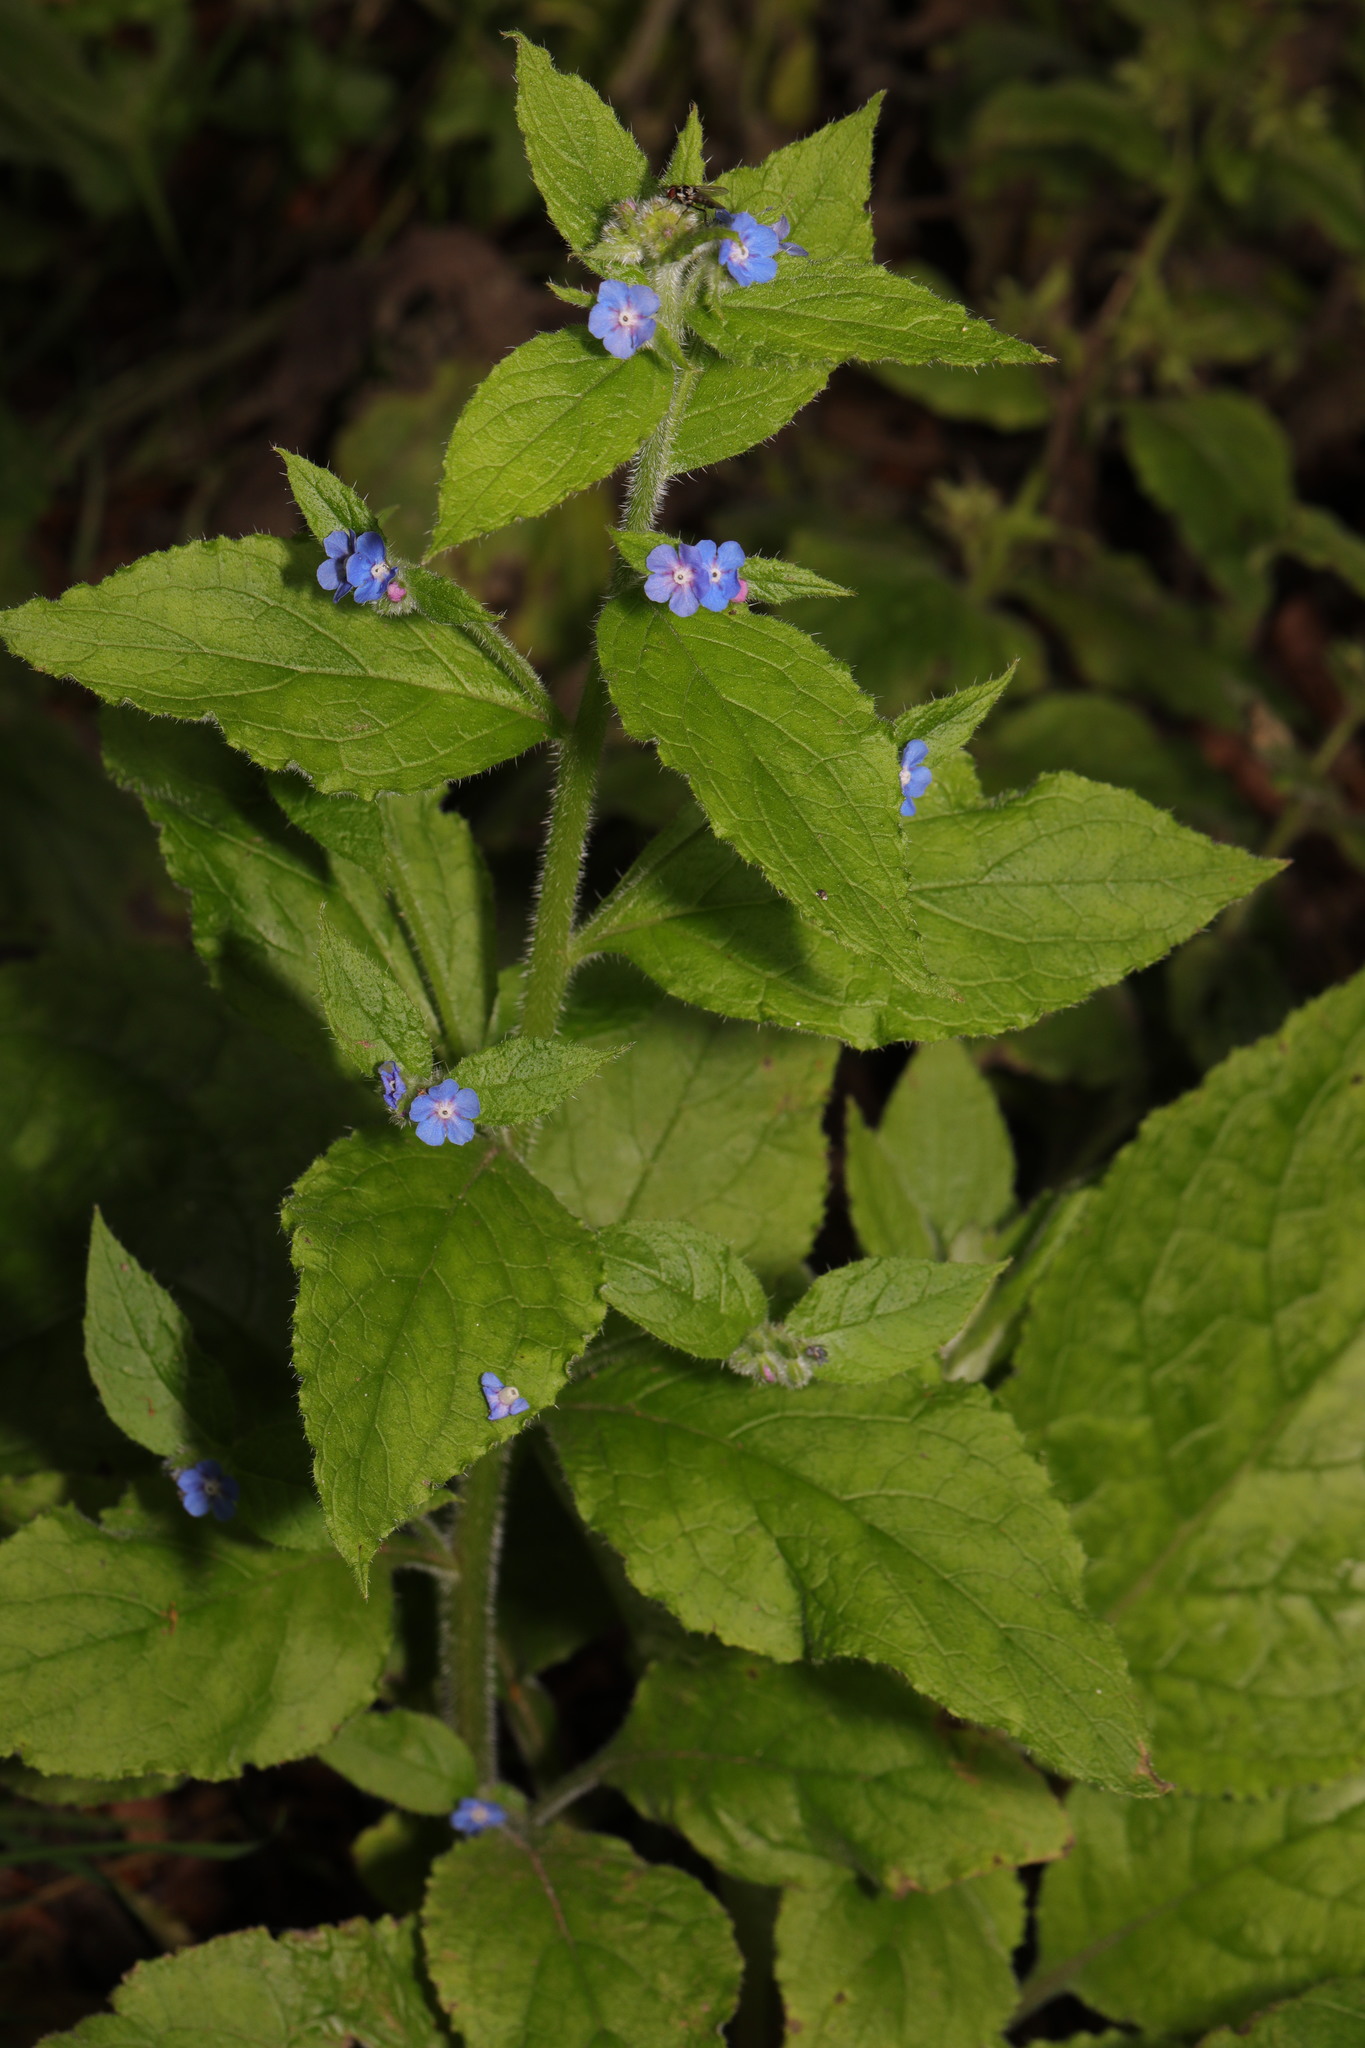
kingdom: Plantae
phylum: Tracheophyta
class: Magnoliopsida
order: Boraginales
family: Boraginaceae
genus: Pentaglottis
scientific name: Pentaglottis sempervirens
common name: Green alkanet
